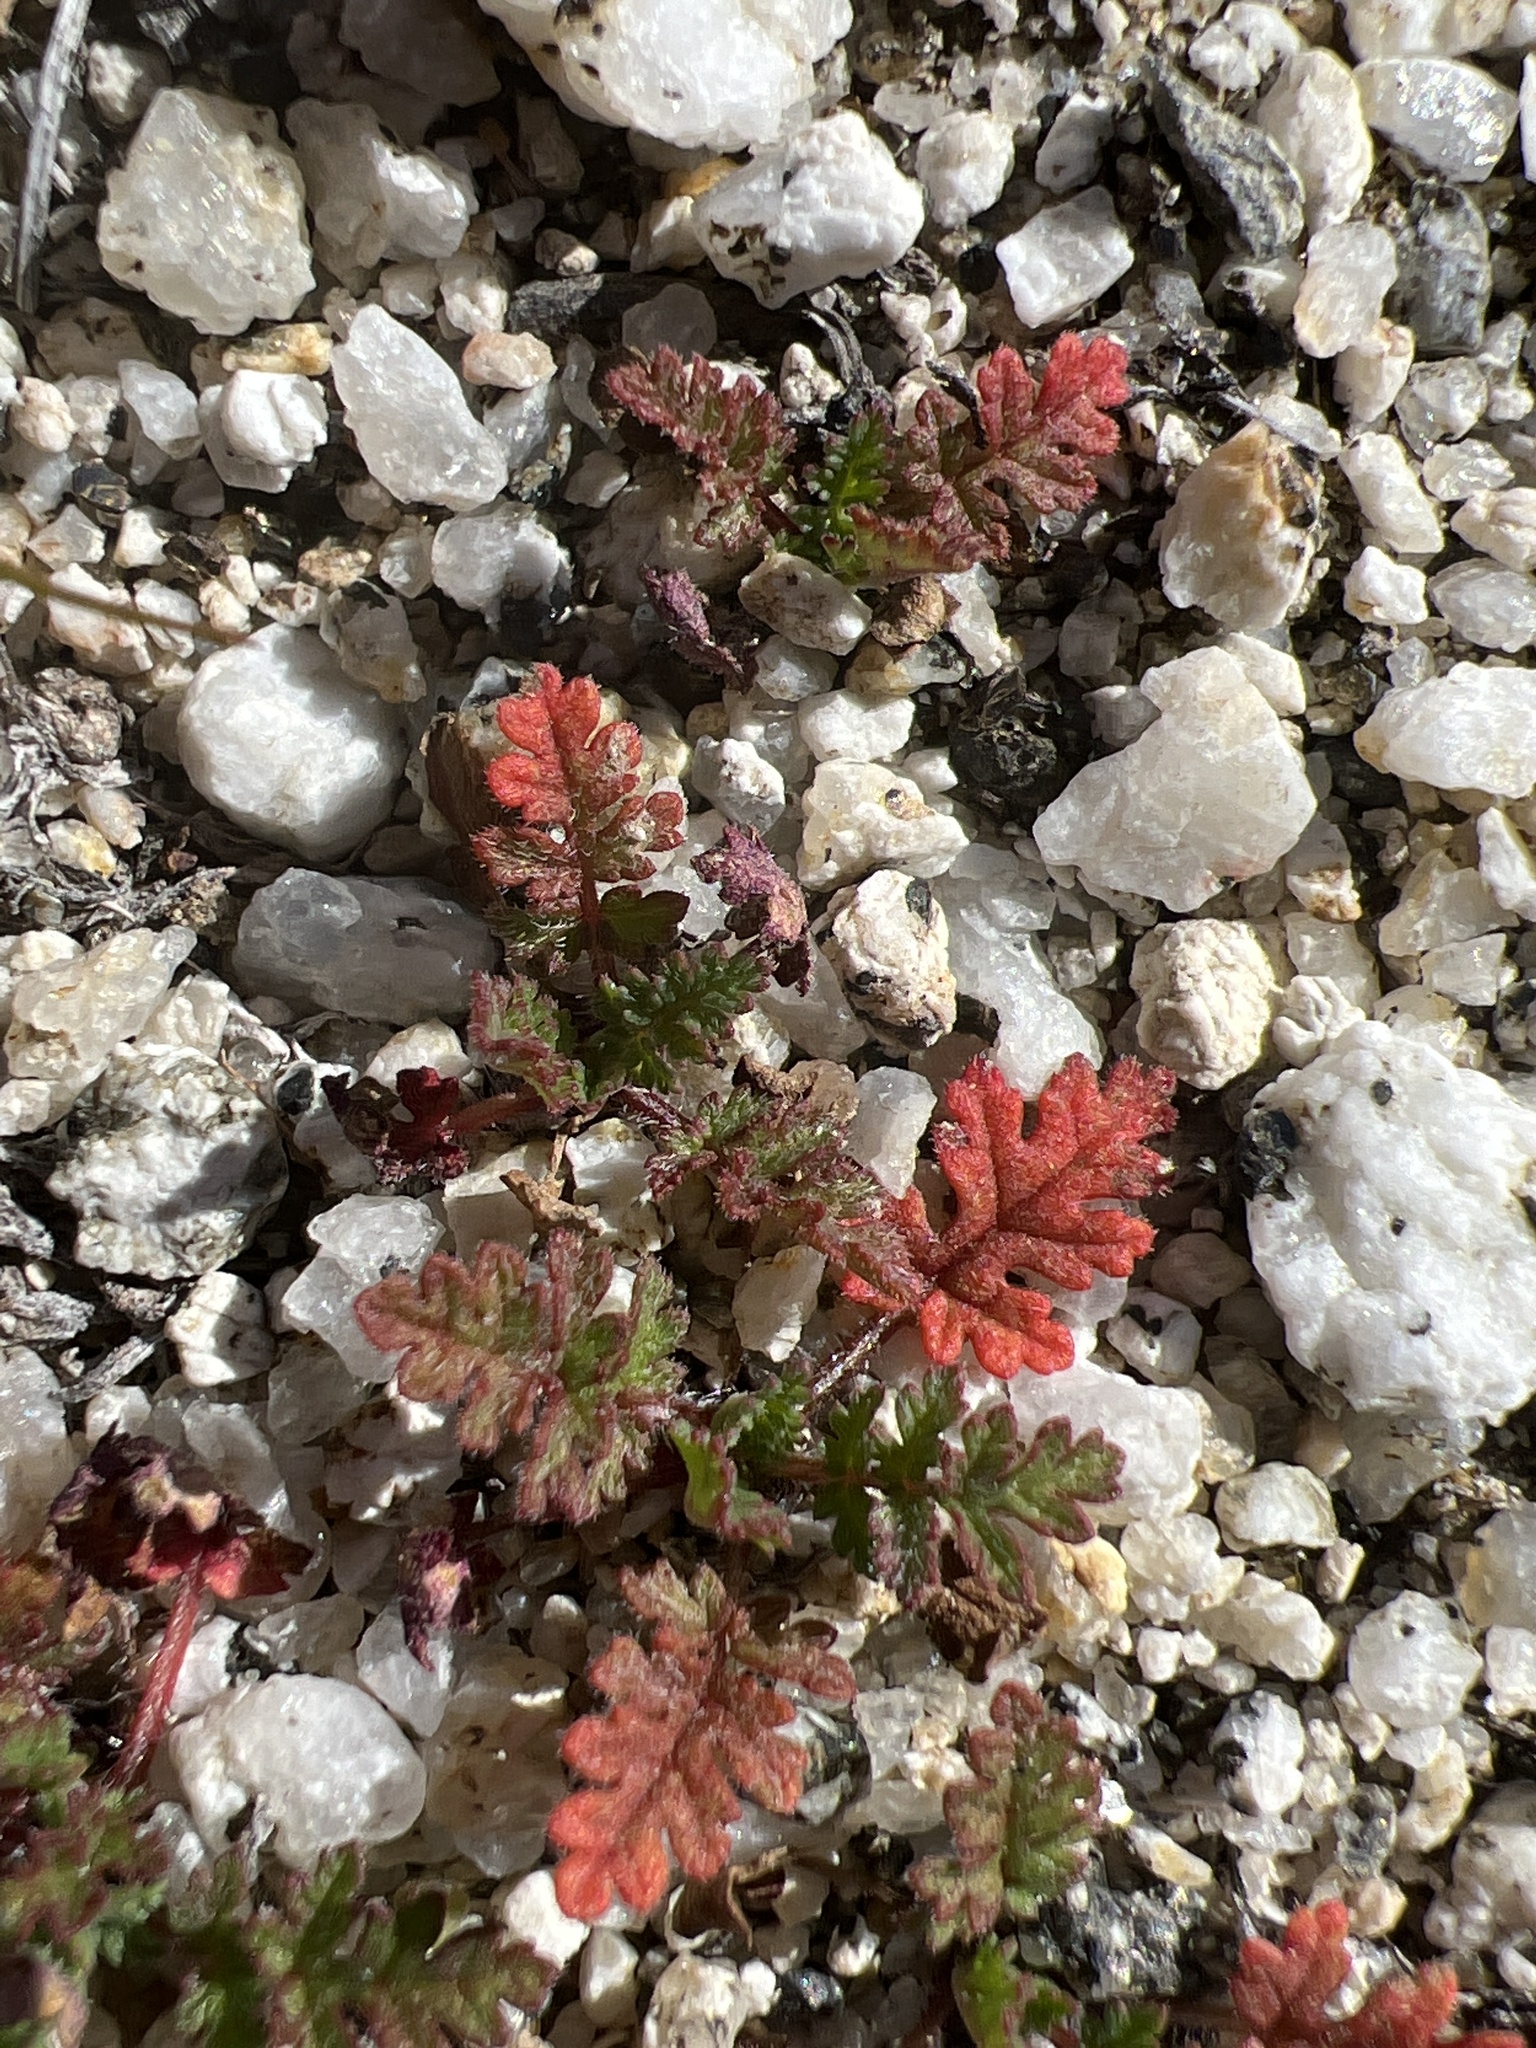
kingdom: Plantae
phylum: Tracheophyta
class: Magnoliopsida
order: Geraniales
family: Geraniaceae
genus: Erodium
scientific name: Erodium cicutarium
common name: Common stork's-bill
